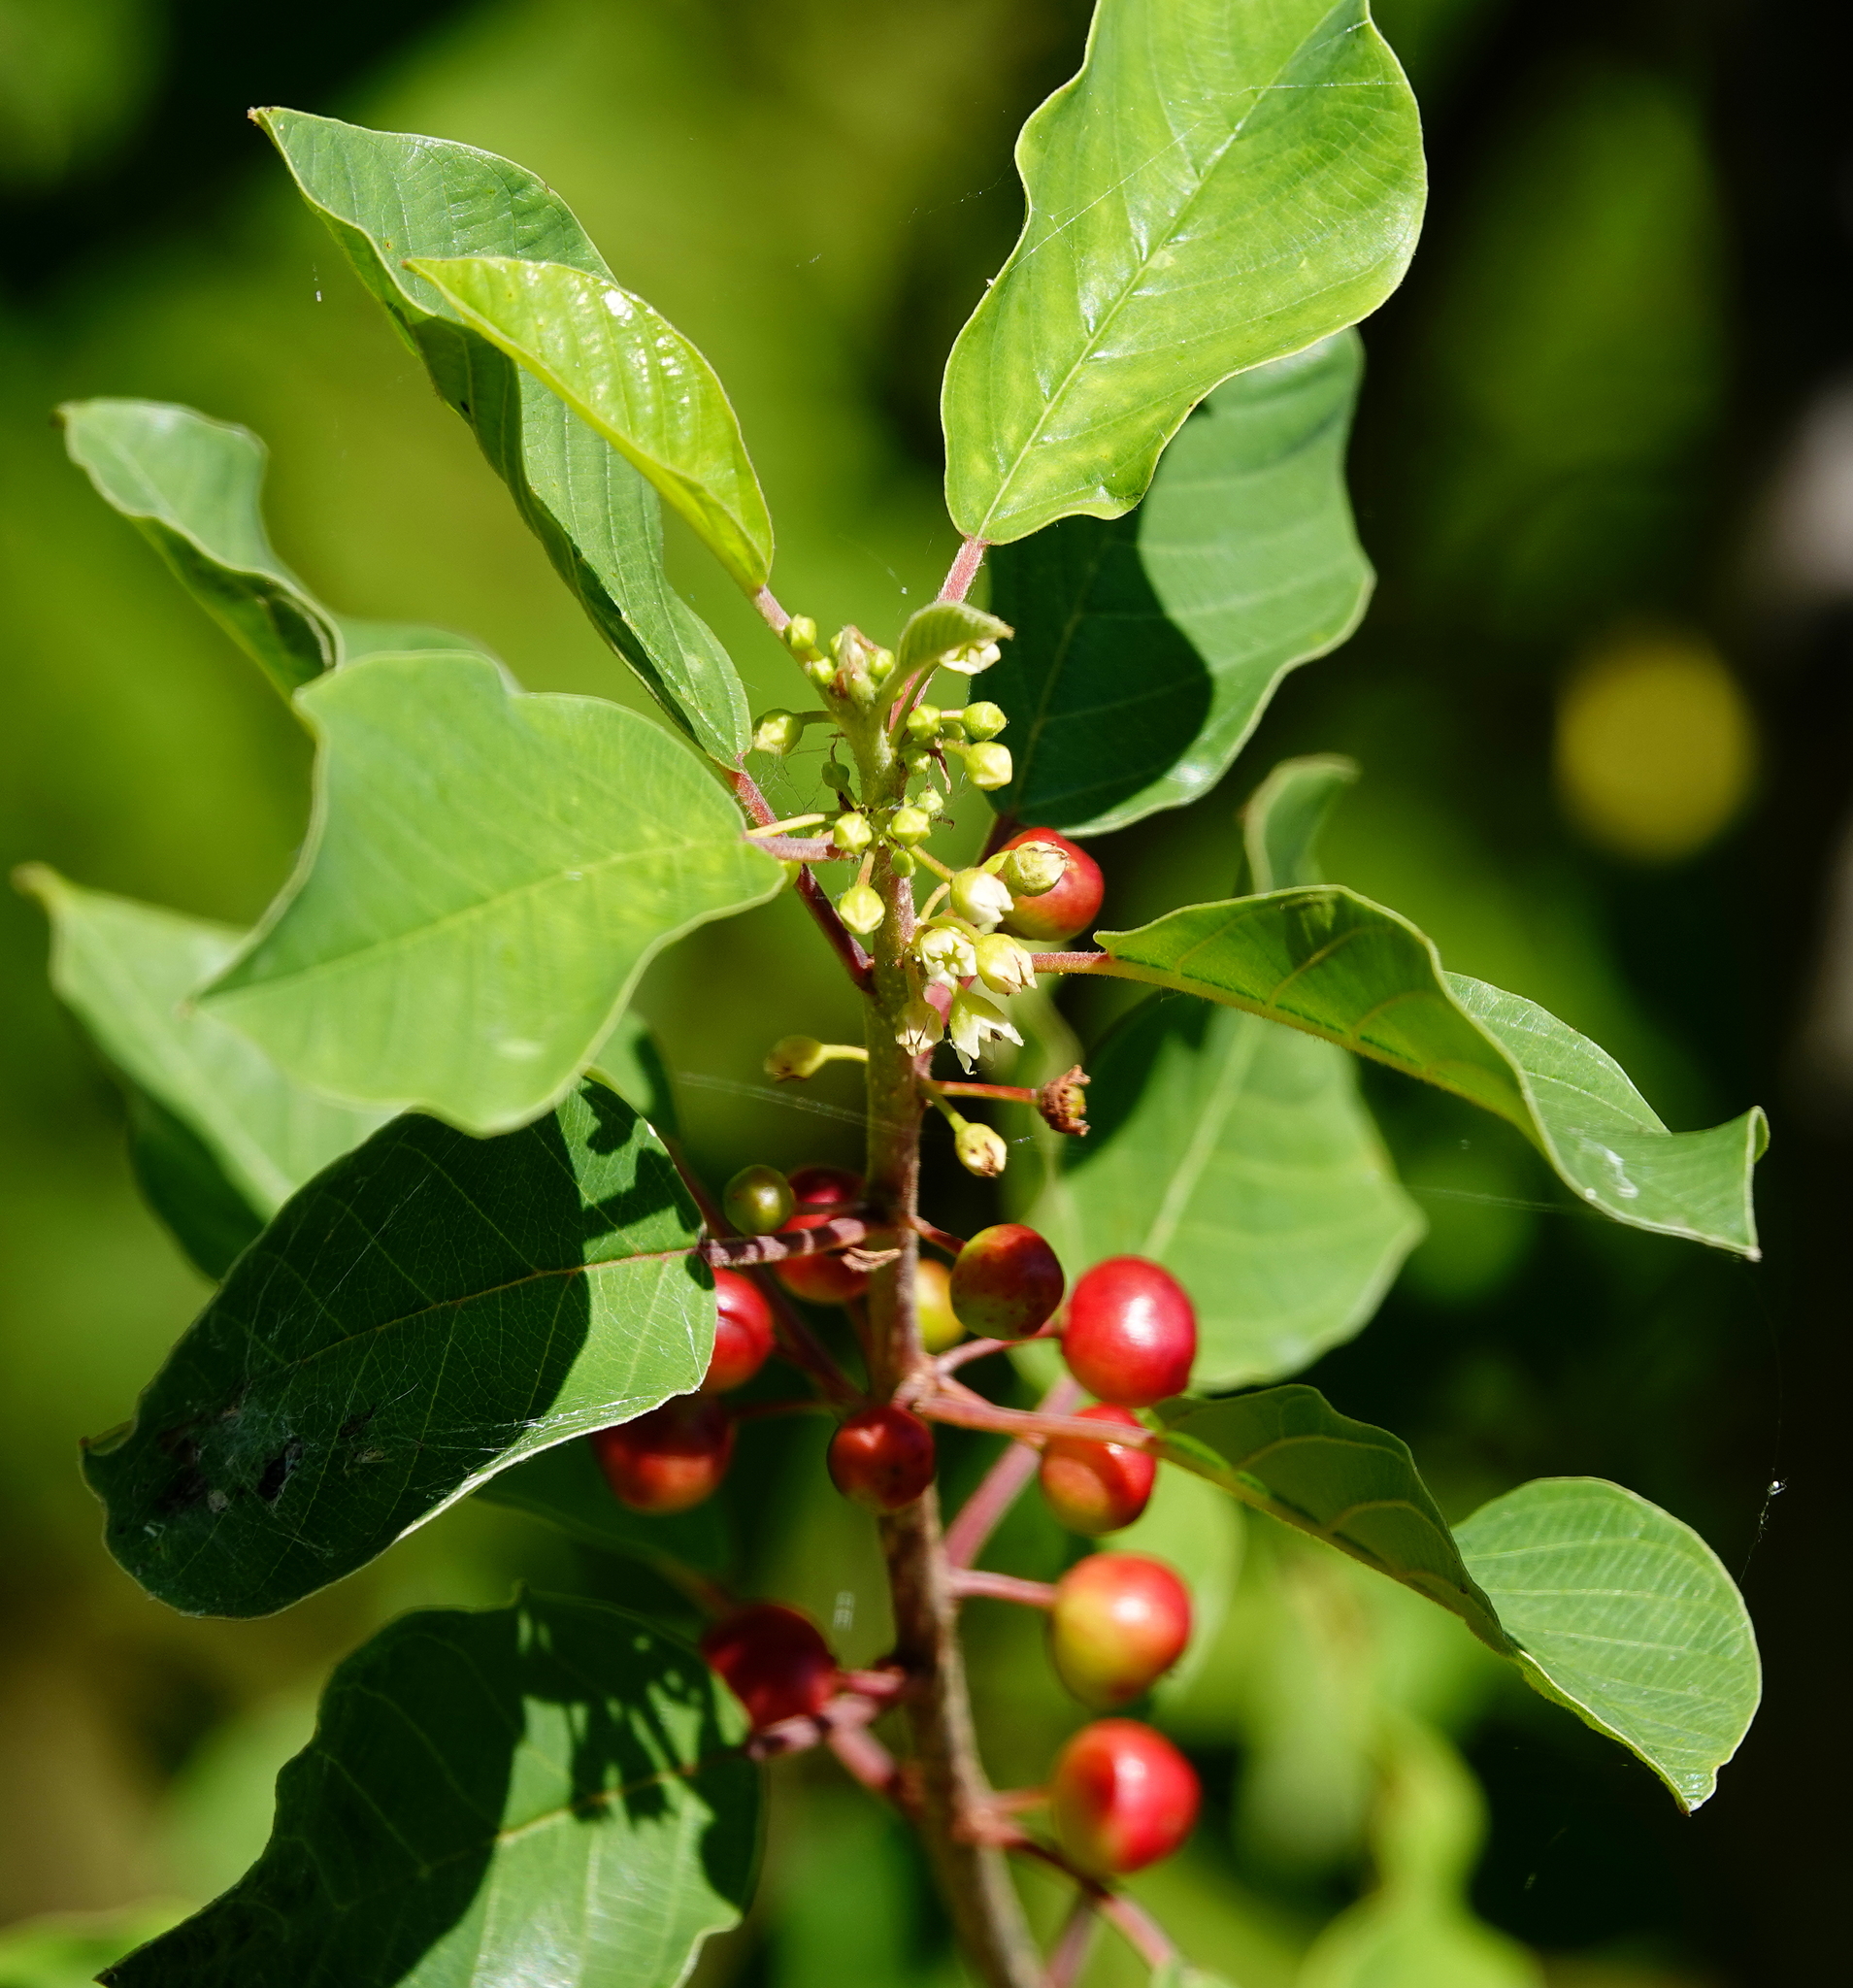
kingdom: Plantae
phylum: Tracheophyta
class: Magnoliopsida
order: Rosales
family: Rhamnaceae
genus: Frangula
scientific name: Frangula alnus
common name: Alder buckthorn
